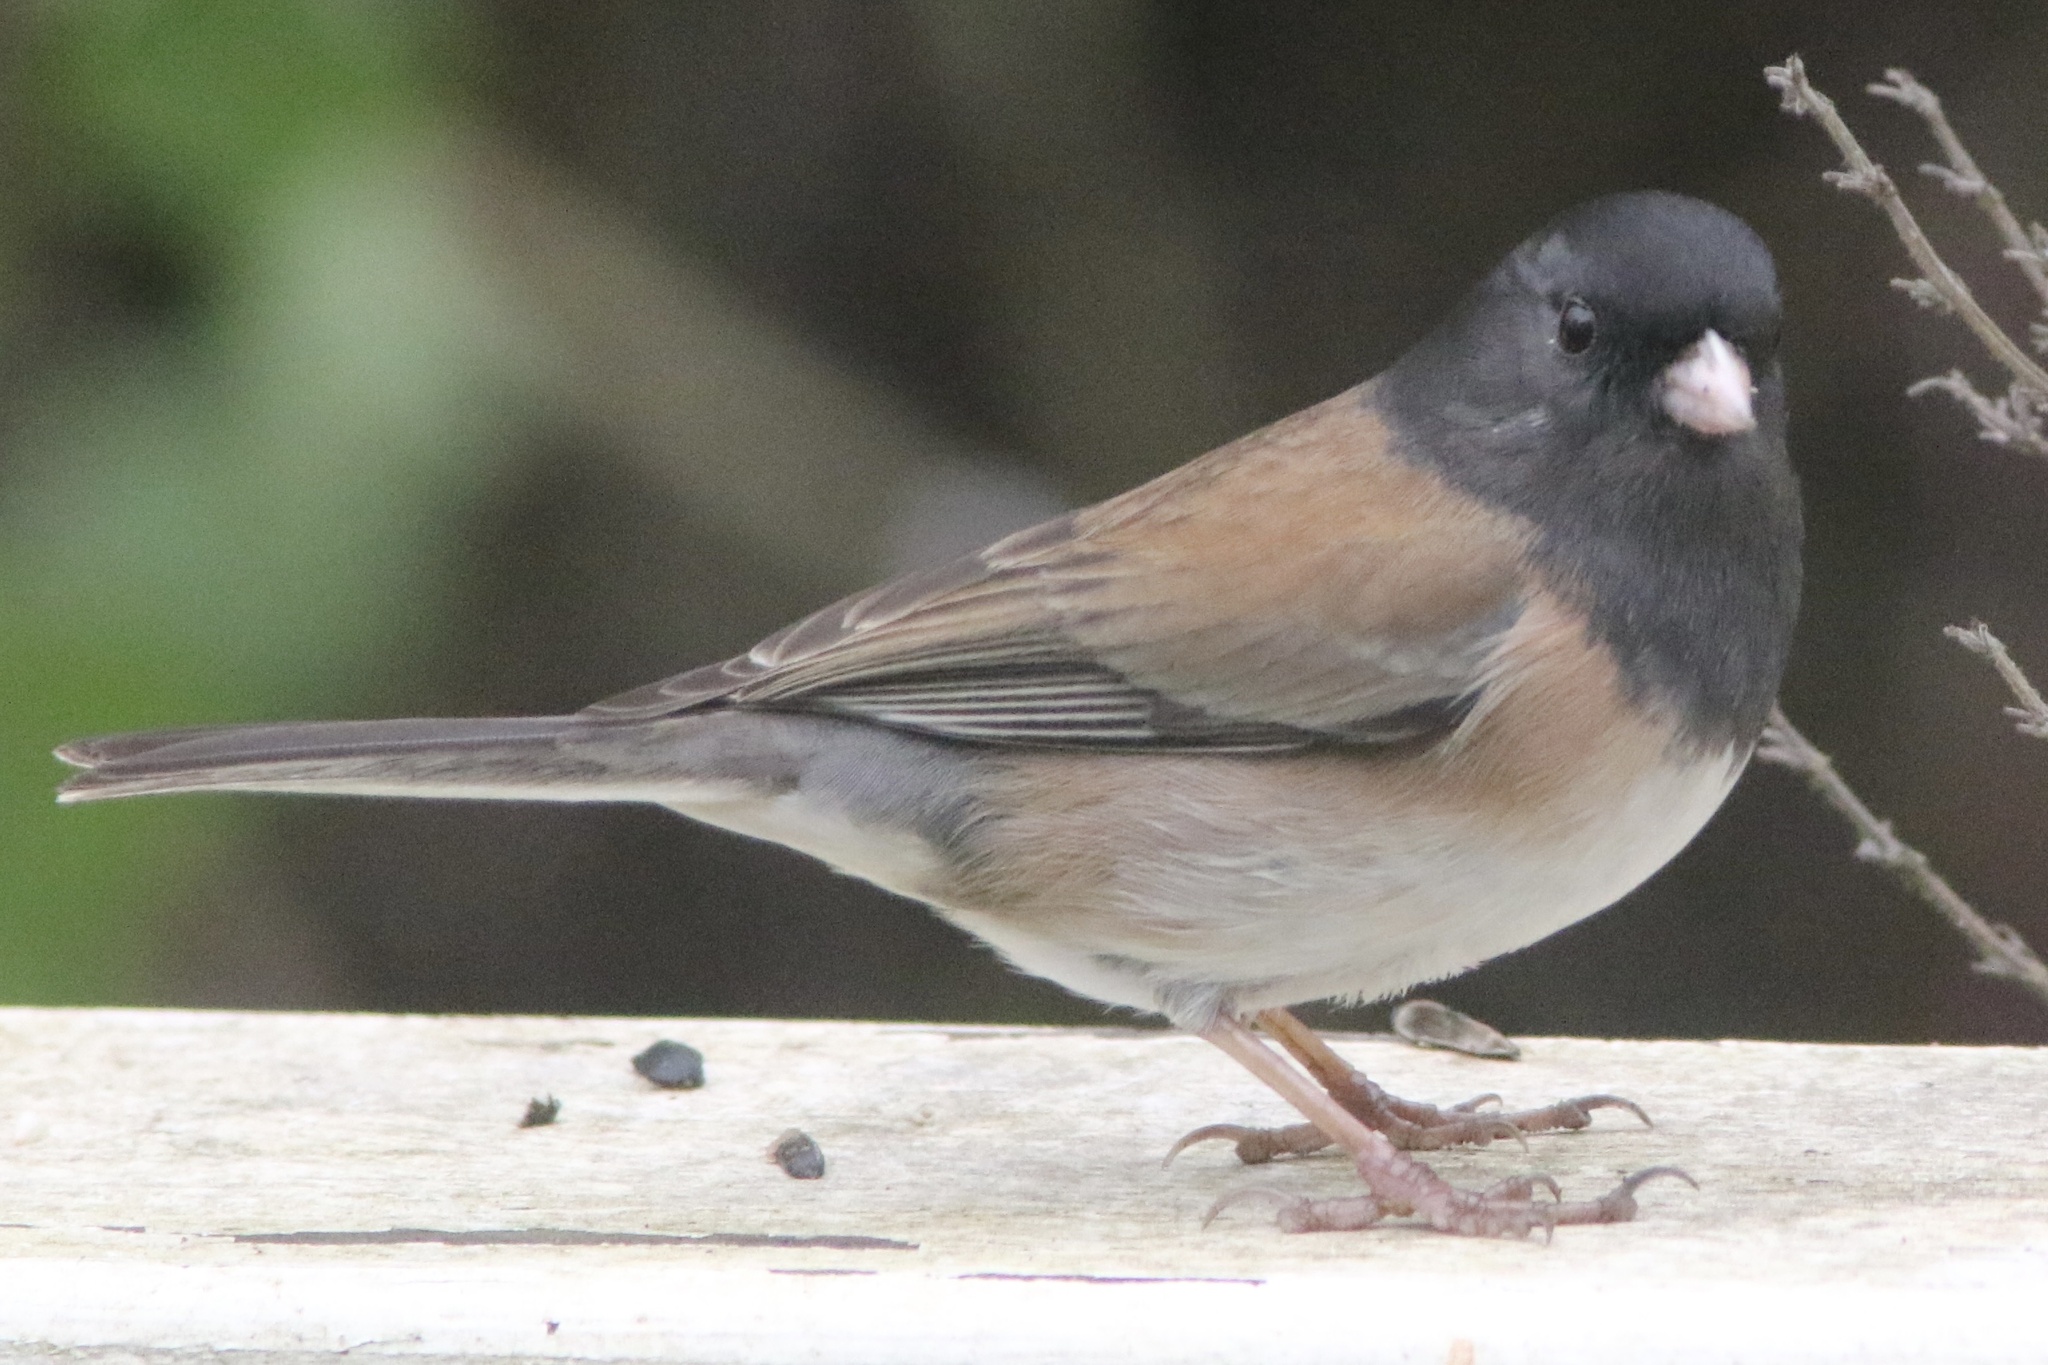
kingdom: Animalia
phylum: Chordata
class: Aves
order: Passeriformes
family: Passerellidae
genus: Junco
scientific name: Junco hyemalis
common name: Dark-eyed junco
